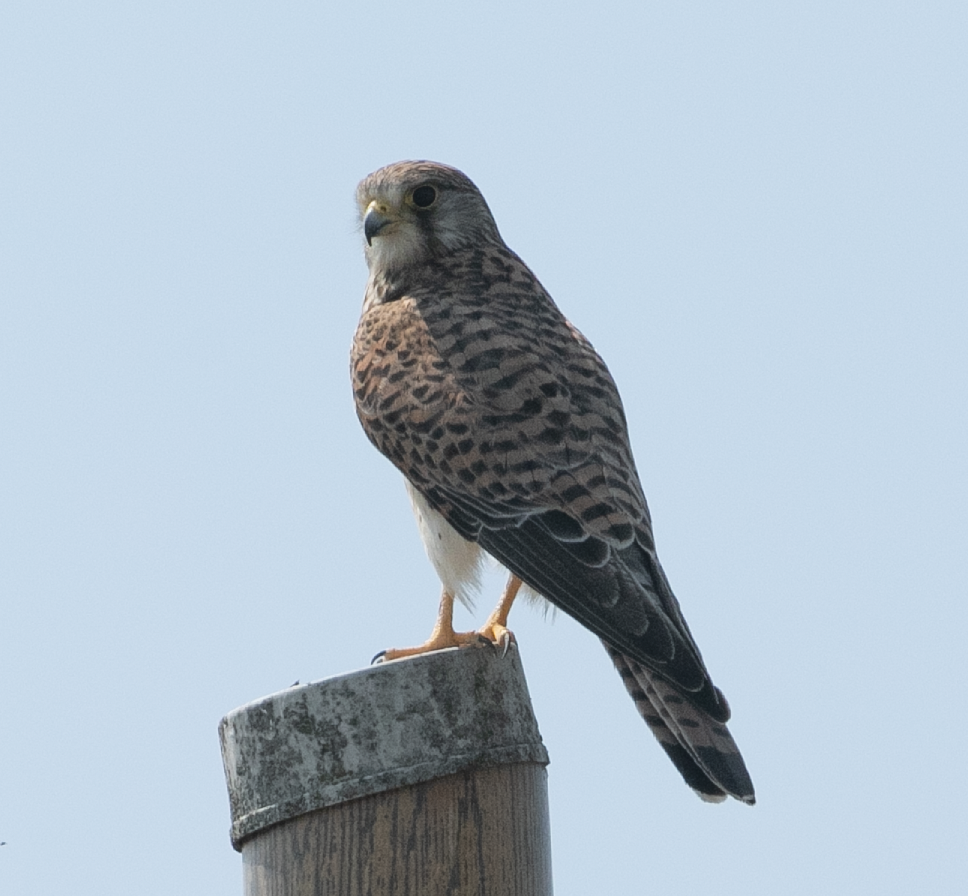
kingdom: Animalia
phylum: Chordata
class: Aves
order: Falconiformes
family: Falconidae
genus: Falco
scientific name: Falco tinnunculus
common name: Common kestrel
